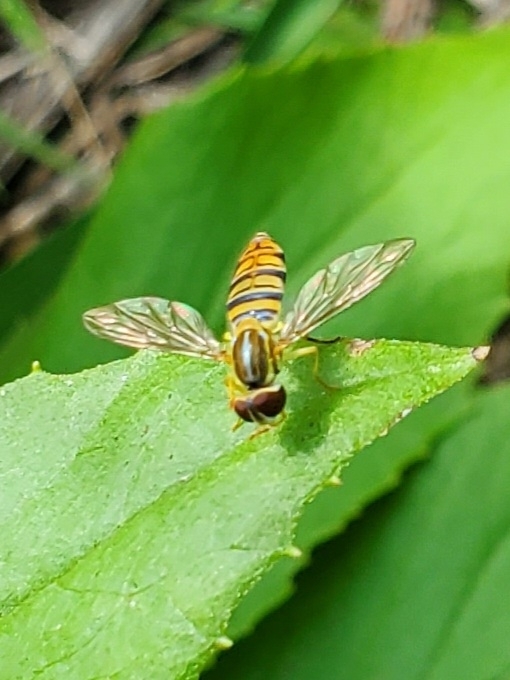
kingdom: Animalia
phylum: Arthropoda
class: Insecta
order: Diptera
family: Syrphidae
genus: Toxomerus
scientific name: Toxomerus politus
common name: Maize calligrapher
